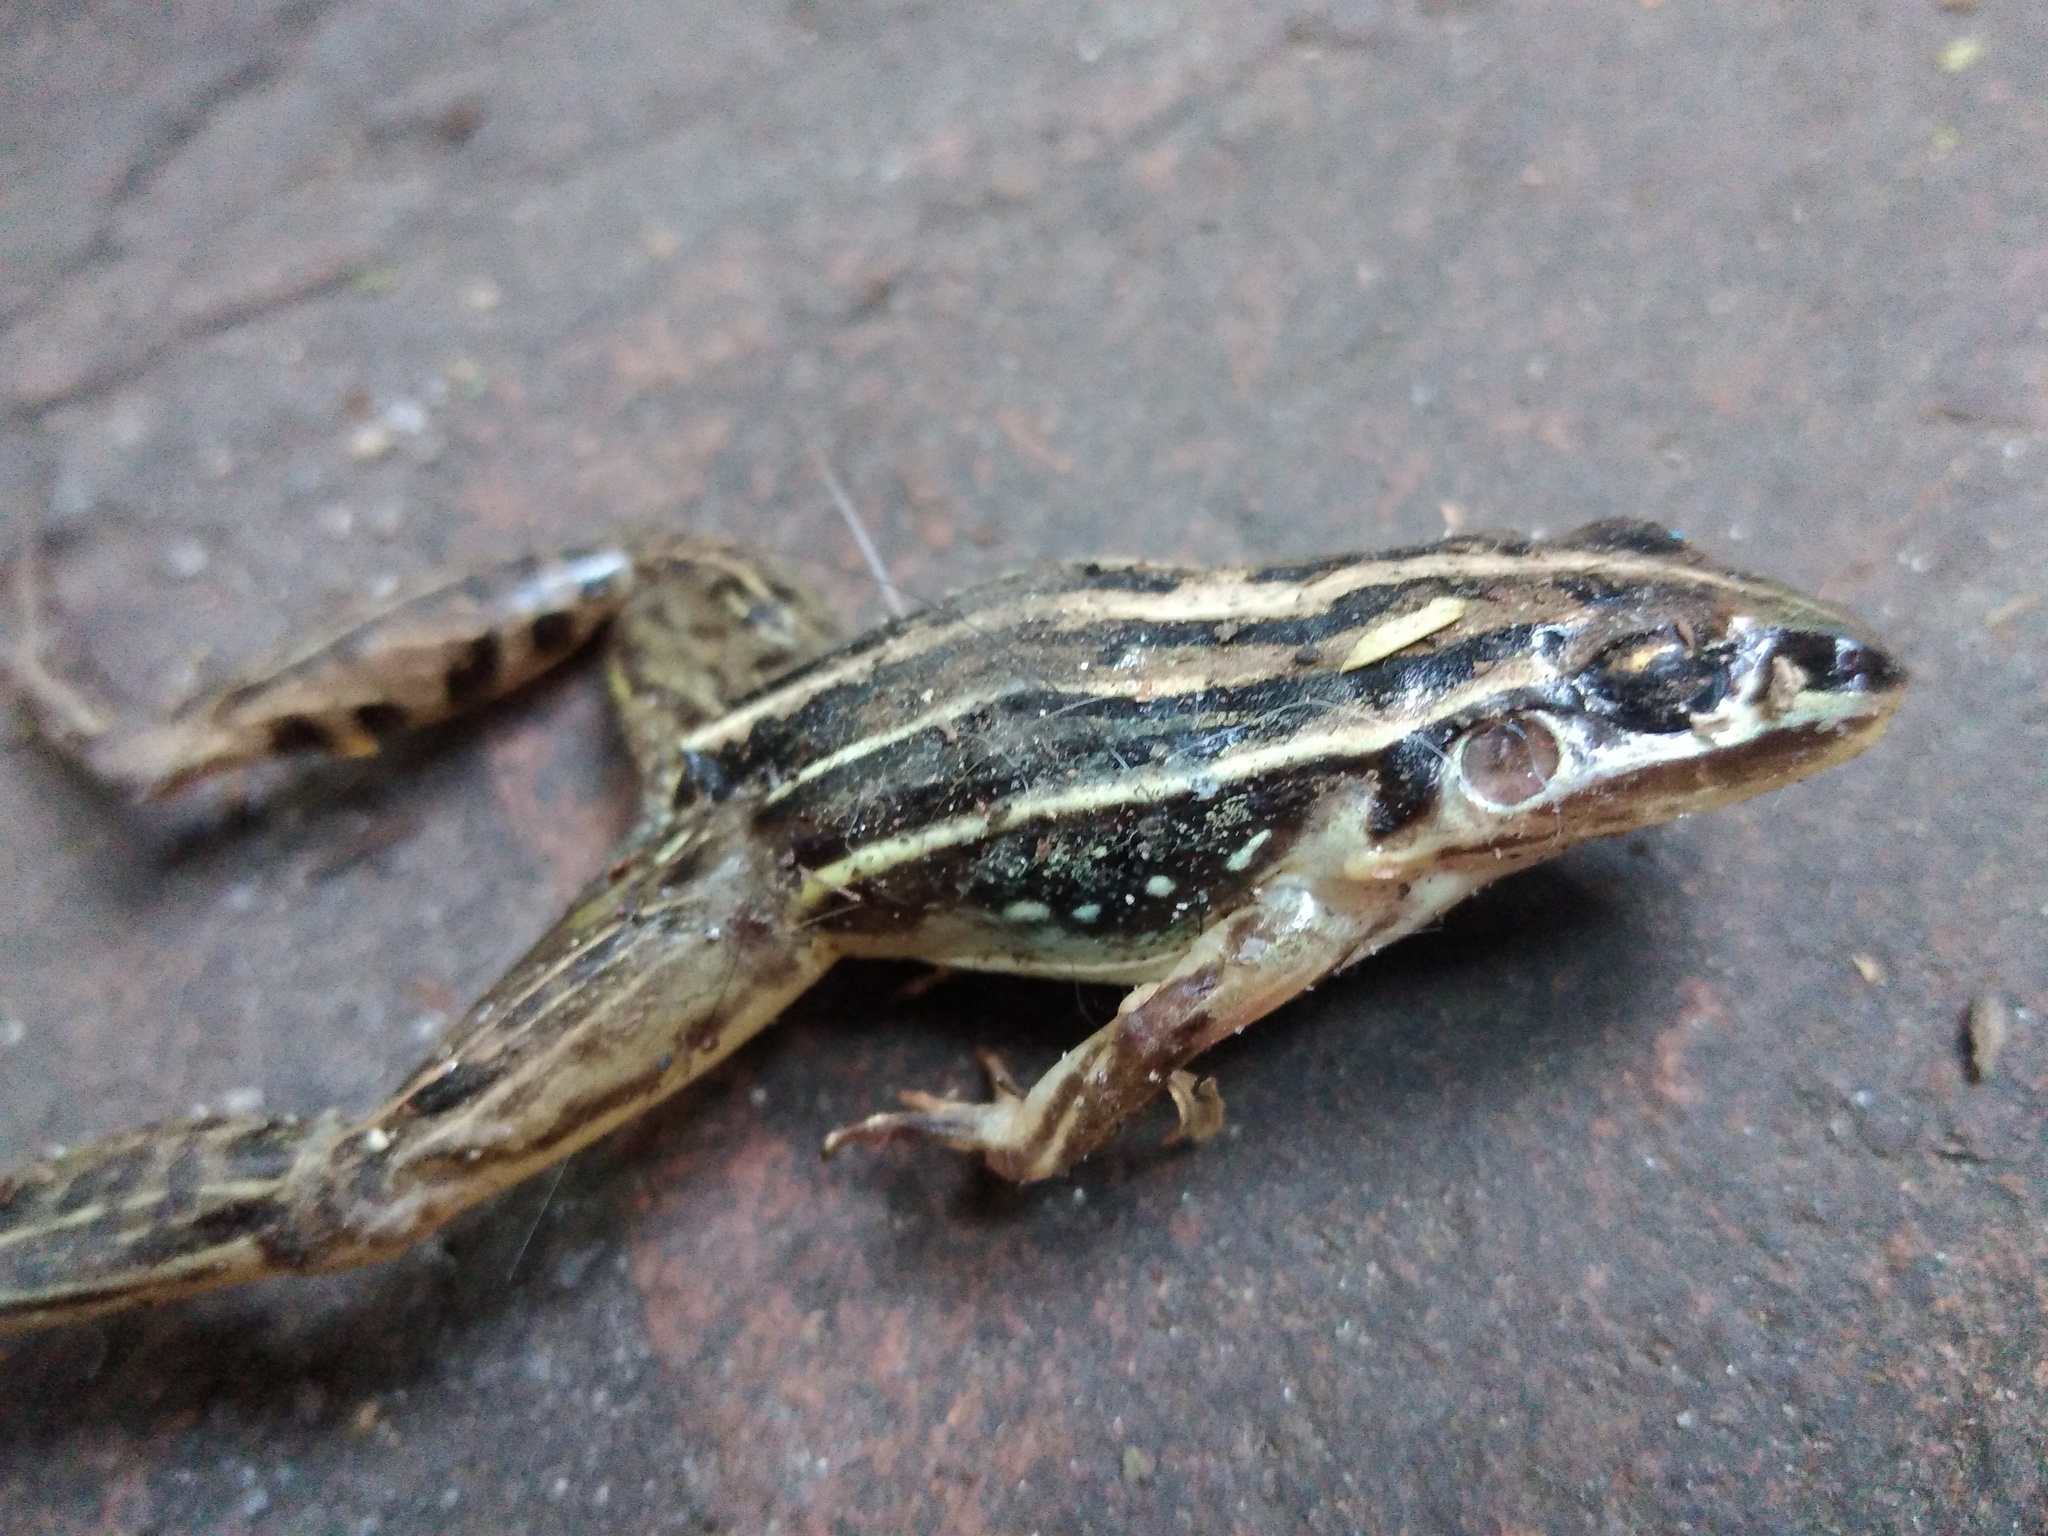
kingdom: Animalia
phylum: Chordata
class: Amphibia
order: Anura
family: Leptodactylidae
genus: Leptodactylus
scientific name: Leptodactylus gracilis
